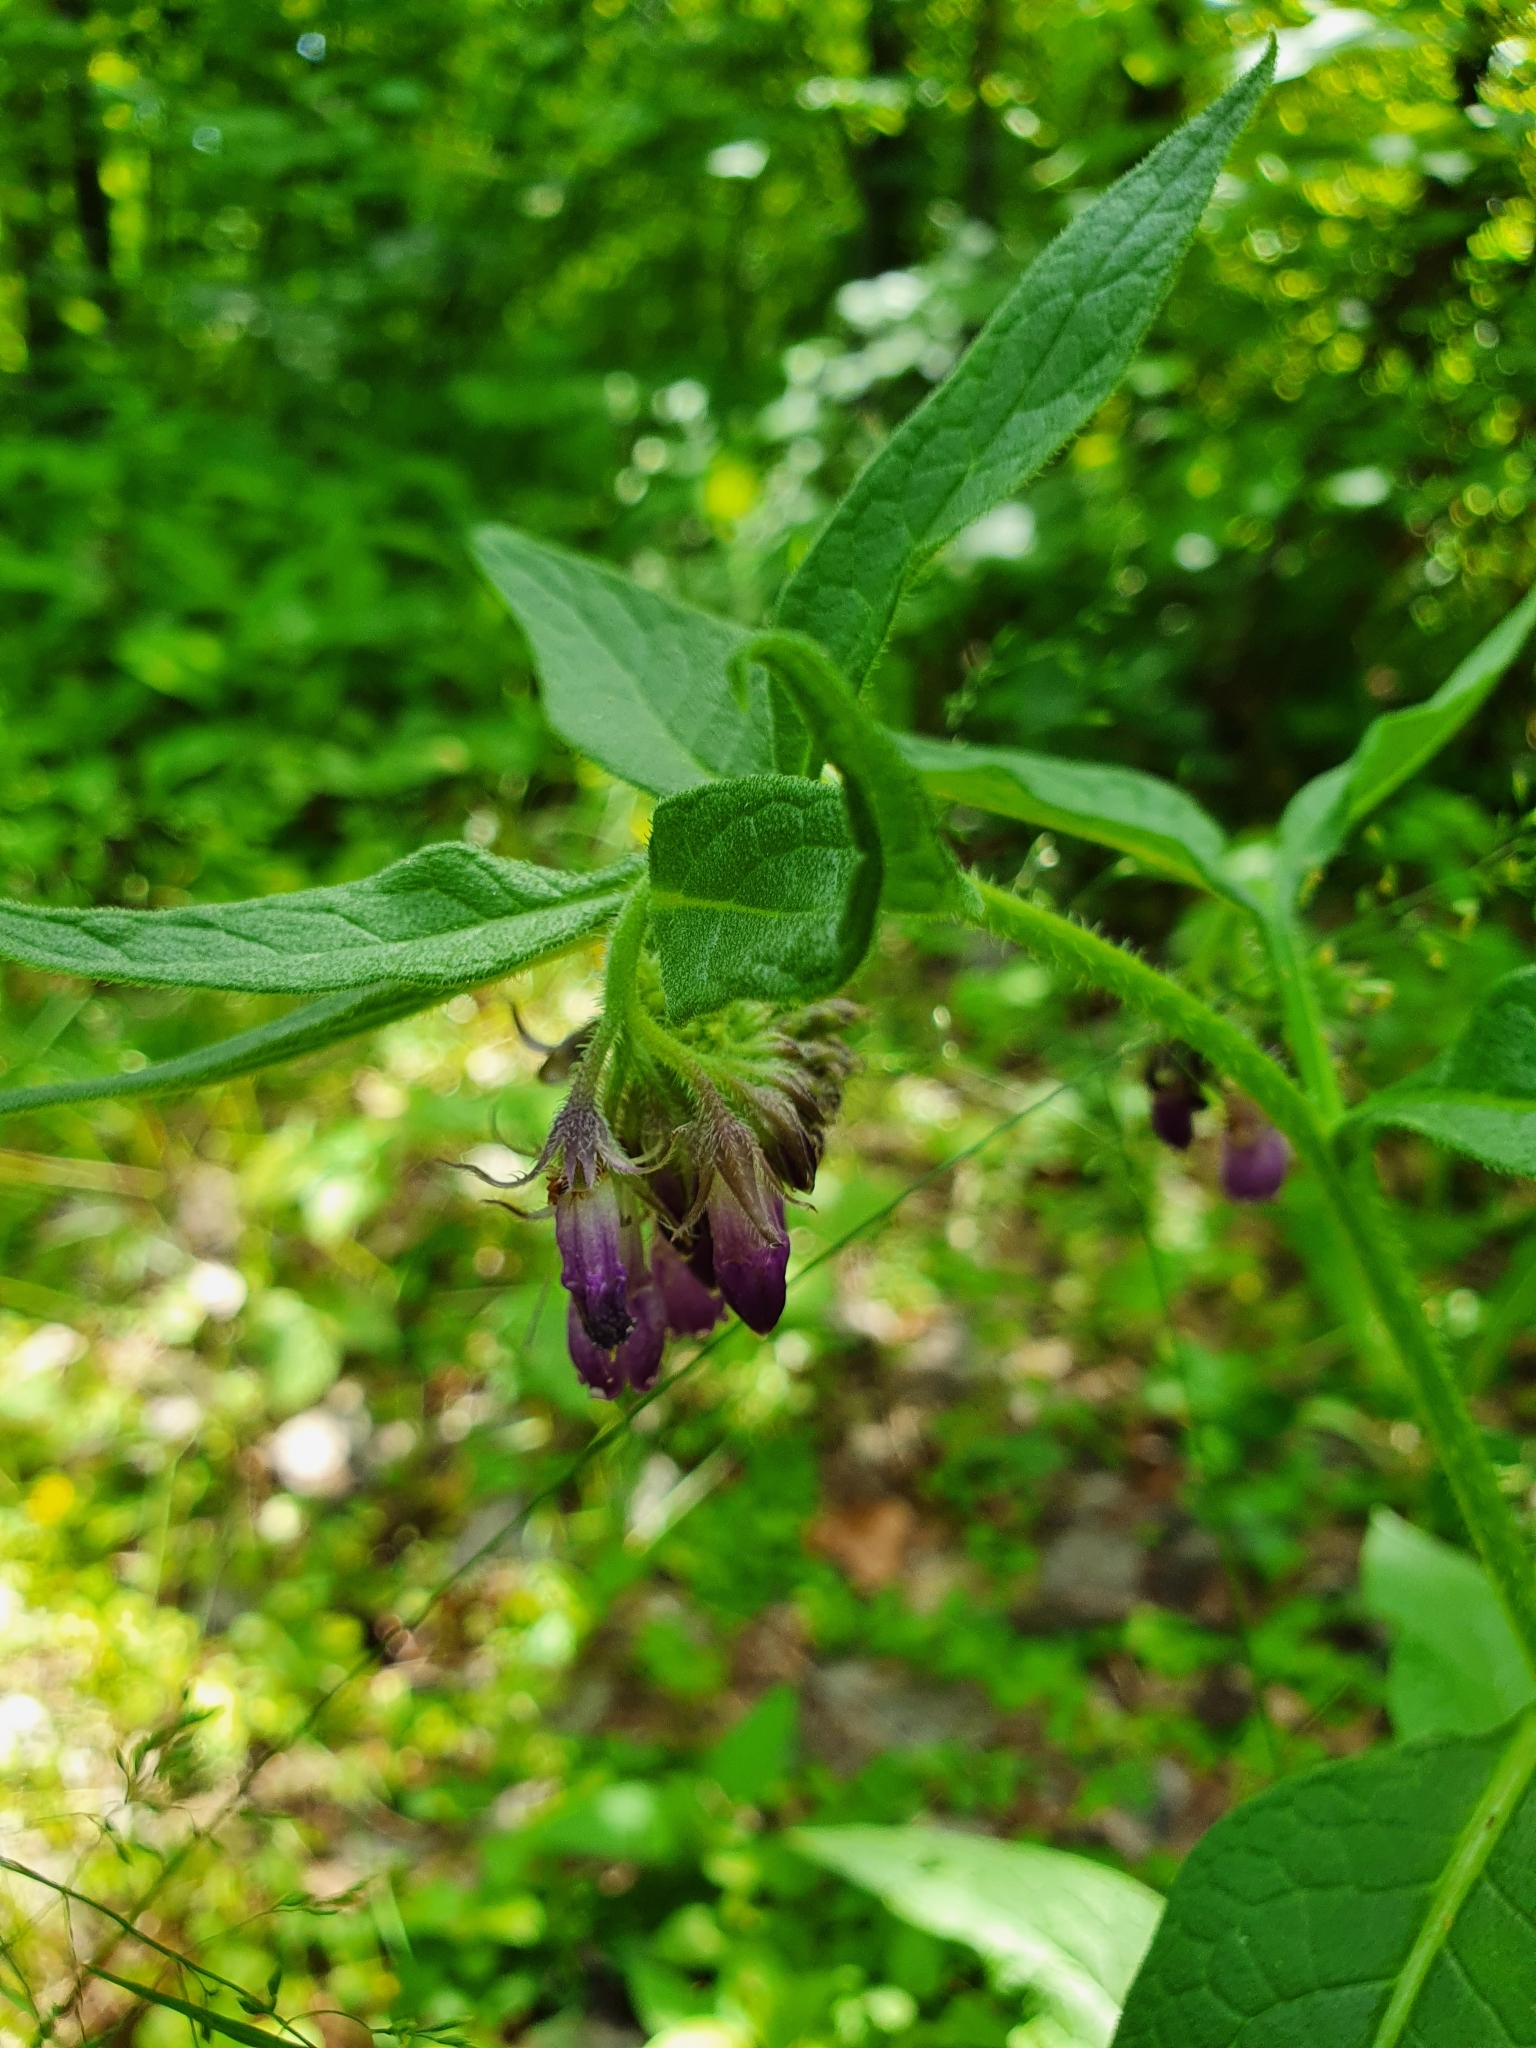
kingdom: Plantae
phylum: Tracheophyta
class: Magnoliopsida
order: Boraginales
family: Boraginaceae
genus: Symphytum
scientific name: Symphytum officinale
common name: Common comfrey
